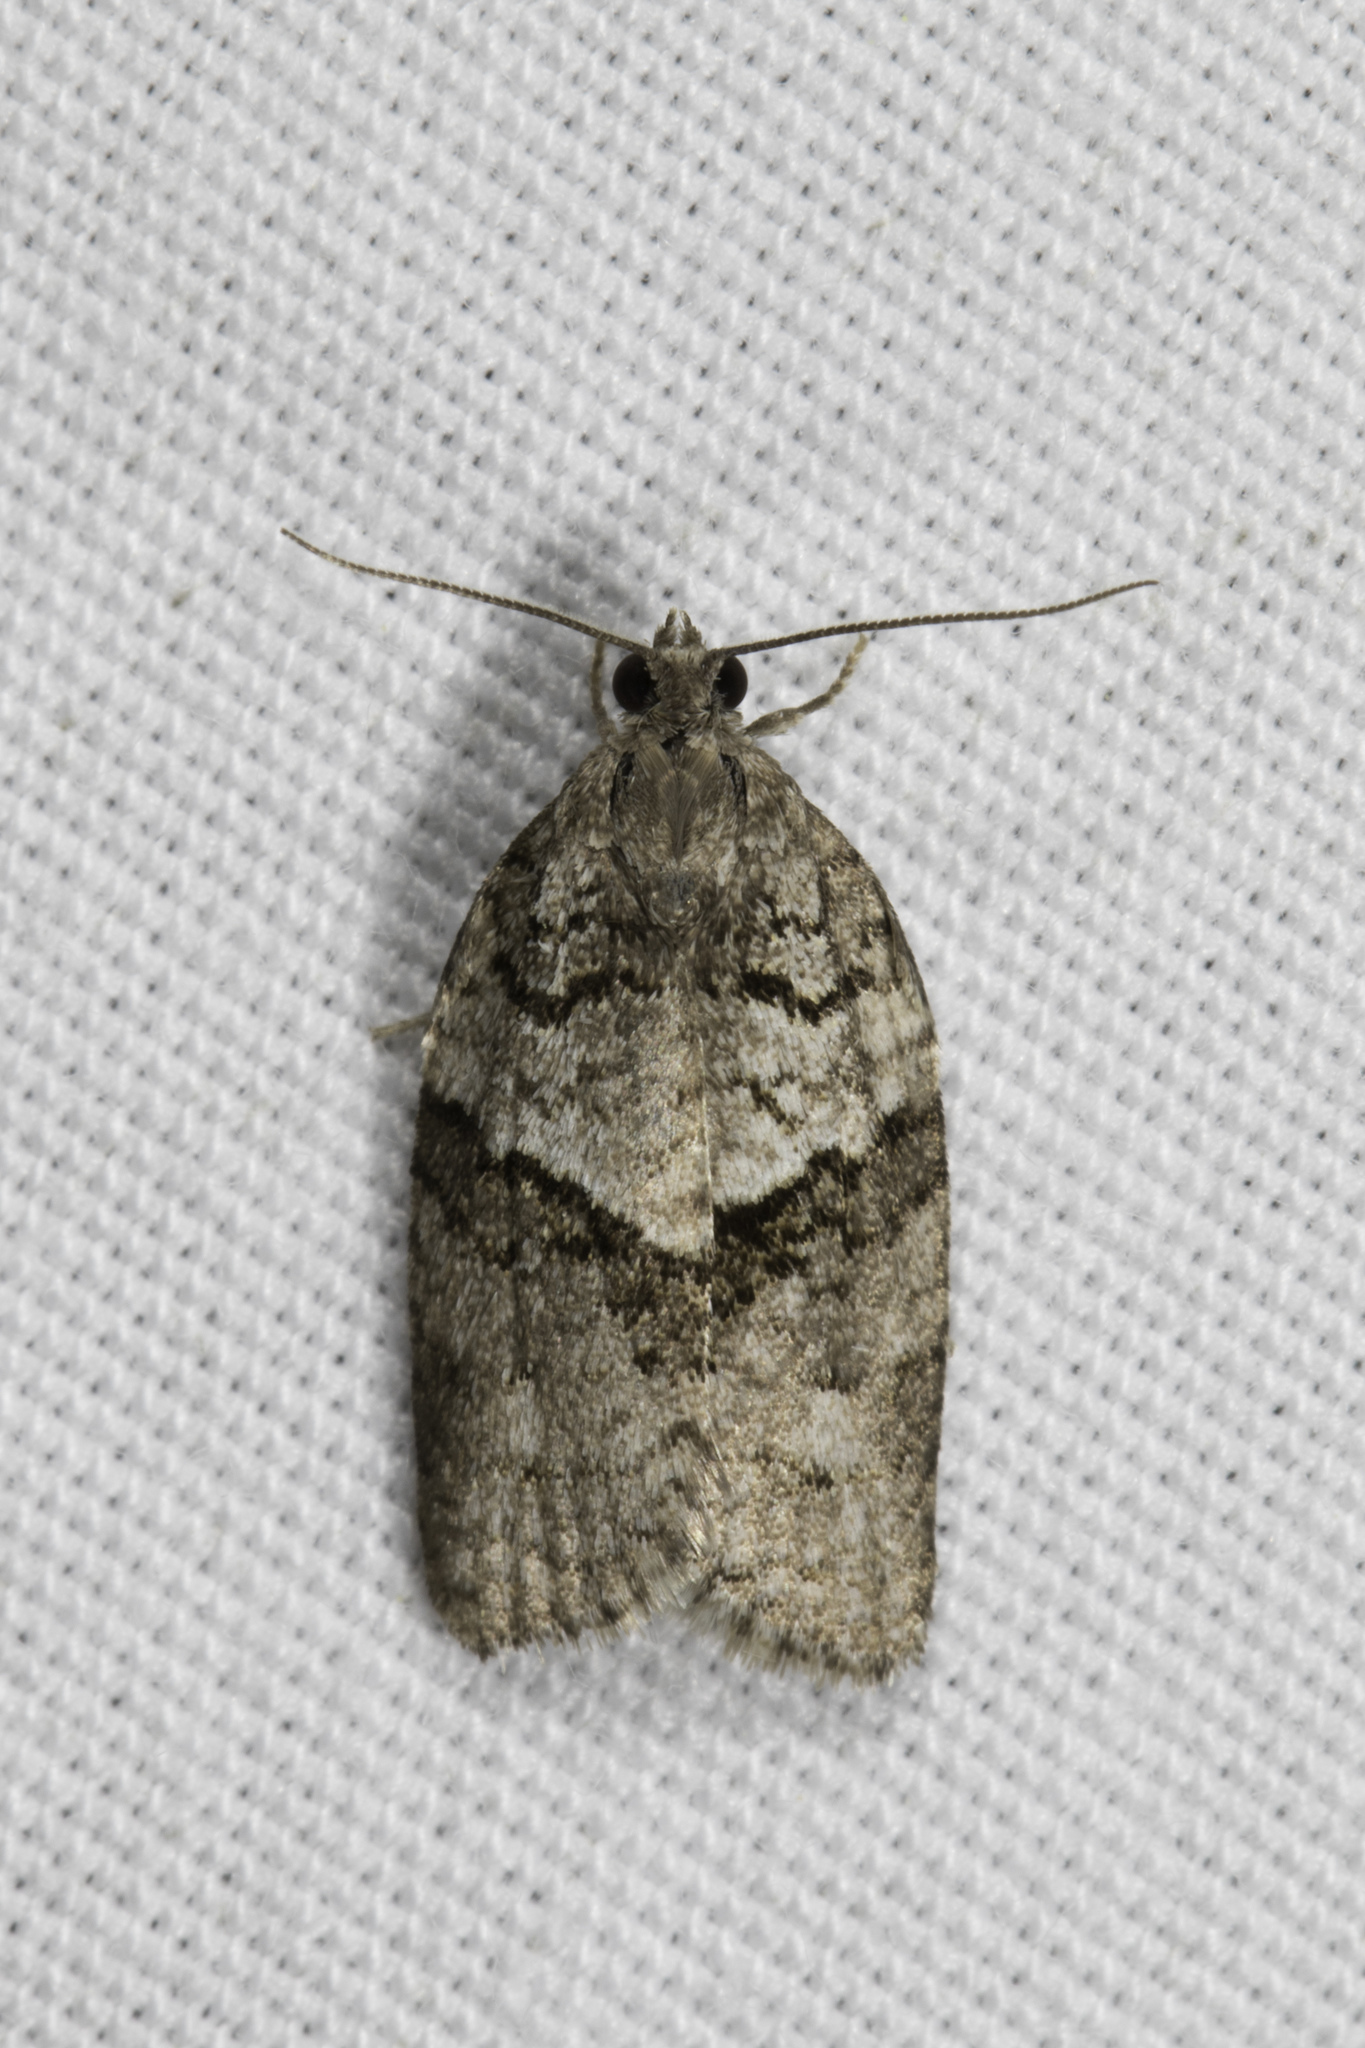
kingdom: Animalia
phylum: Arthropoda
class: Insecta
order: Lepidoptera
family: Tortricidae
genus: Syndemis
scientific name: Syndemis afflictana
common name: Gray leafroller moth
